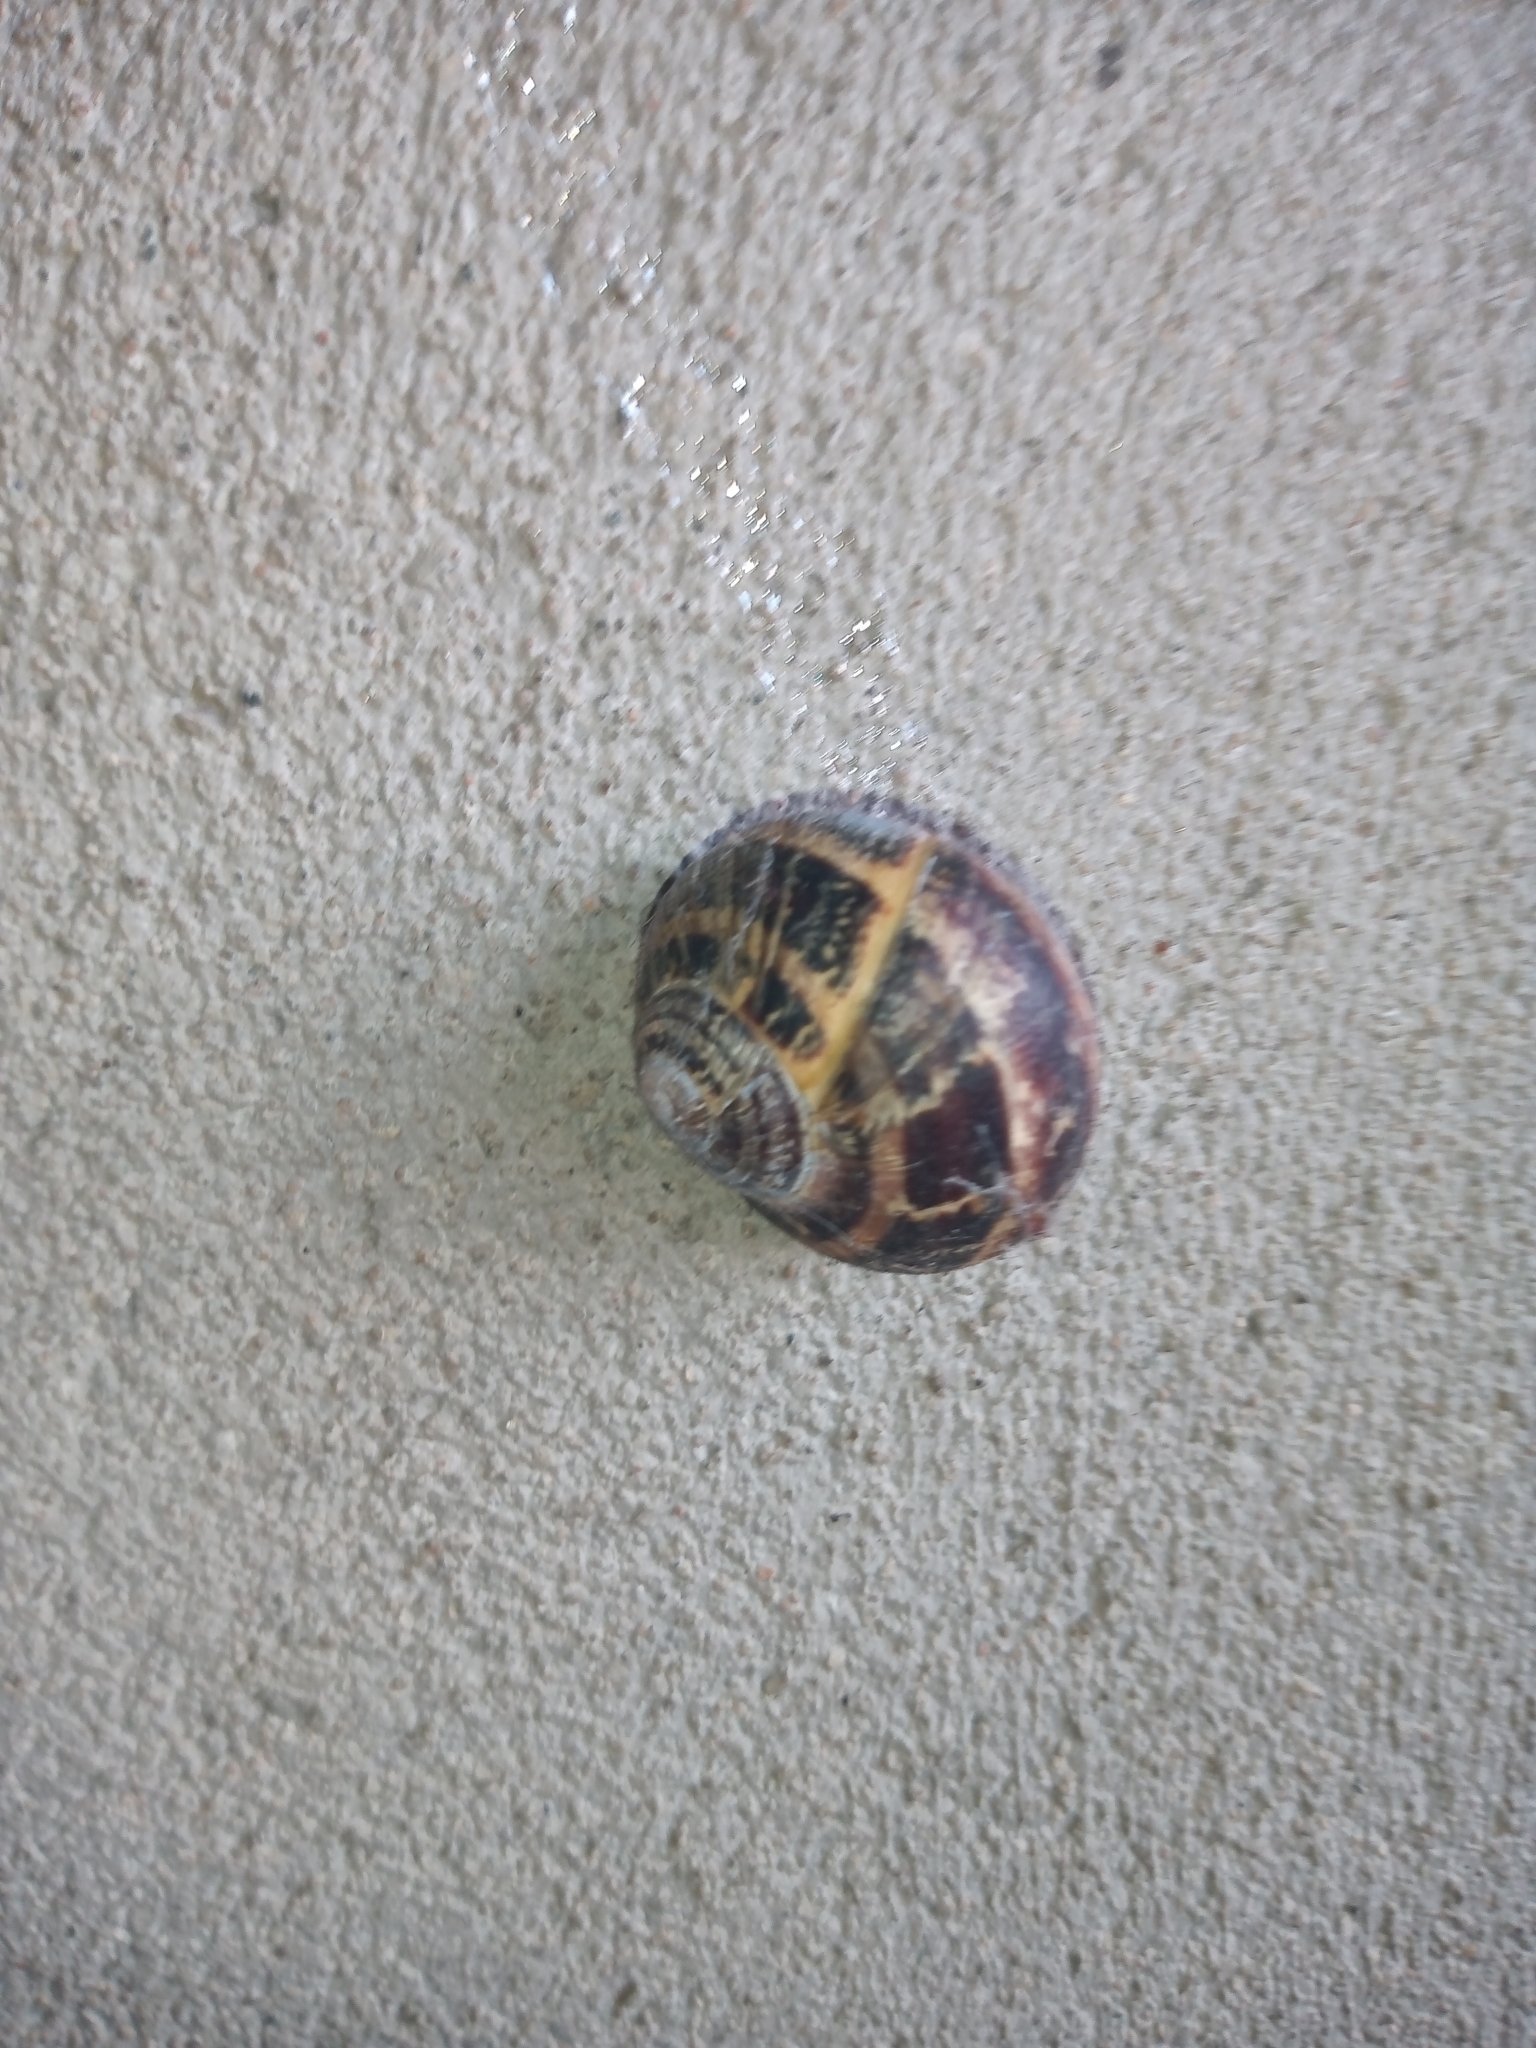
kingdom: Animalia
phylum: Mollusca
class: Gastropoda
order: Stylommatophora
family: Helicidae
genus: Cornu
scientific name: Cornu aspersum
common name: Brown garden snail
